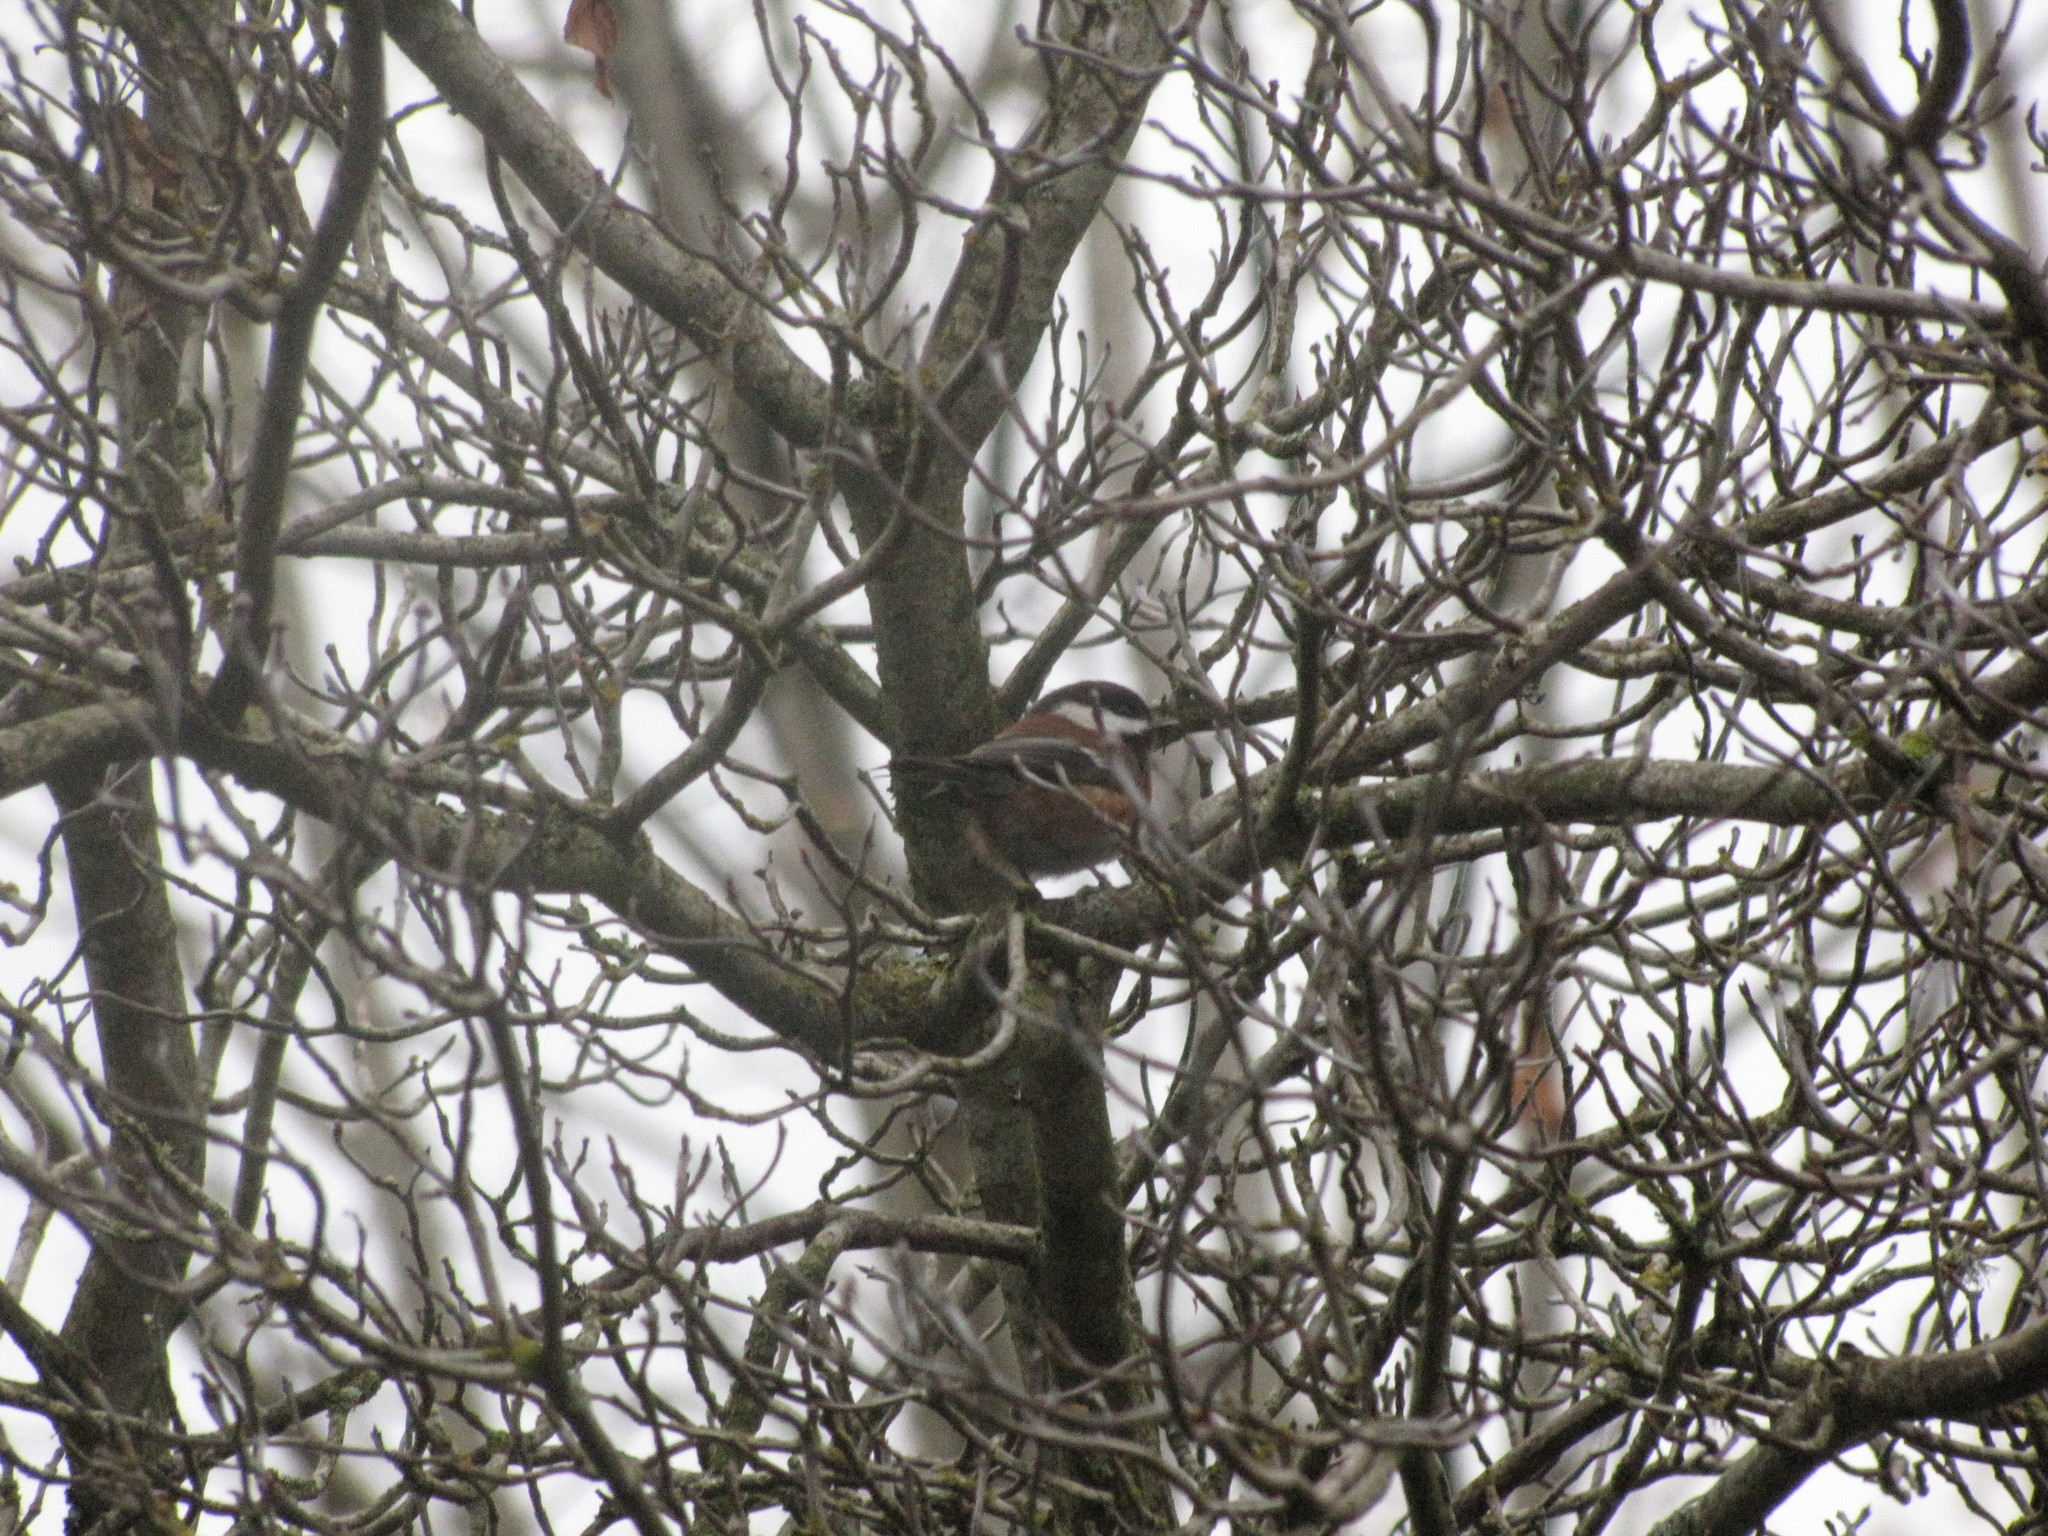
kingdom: Animalia
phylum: Chordata
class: Aves
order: Passeriformes
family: Paridae
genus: Poecile
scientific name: Poecile rufescens
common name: Chestnut-backed chickadee
